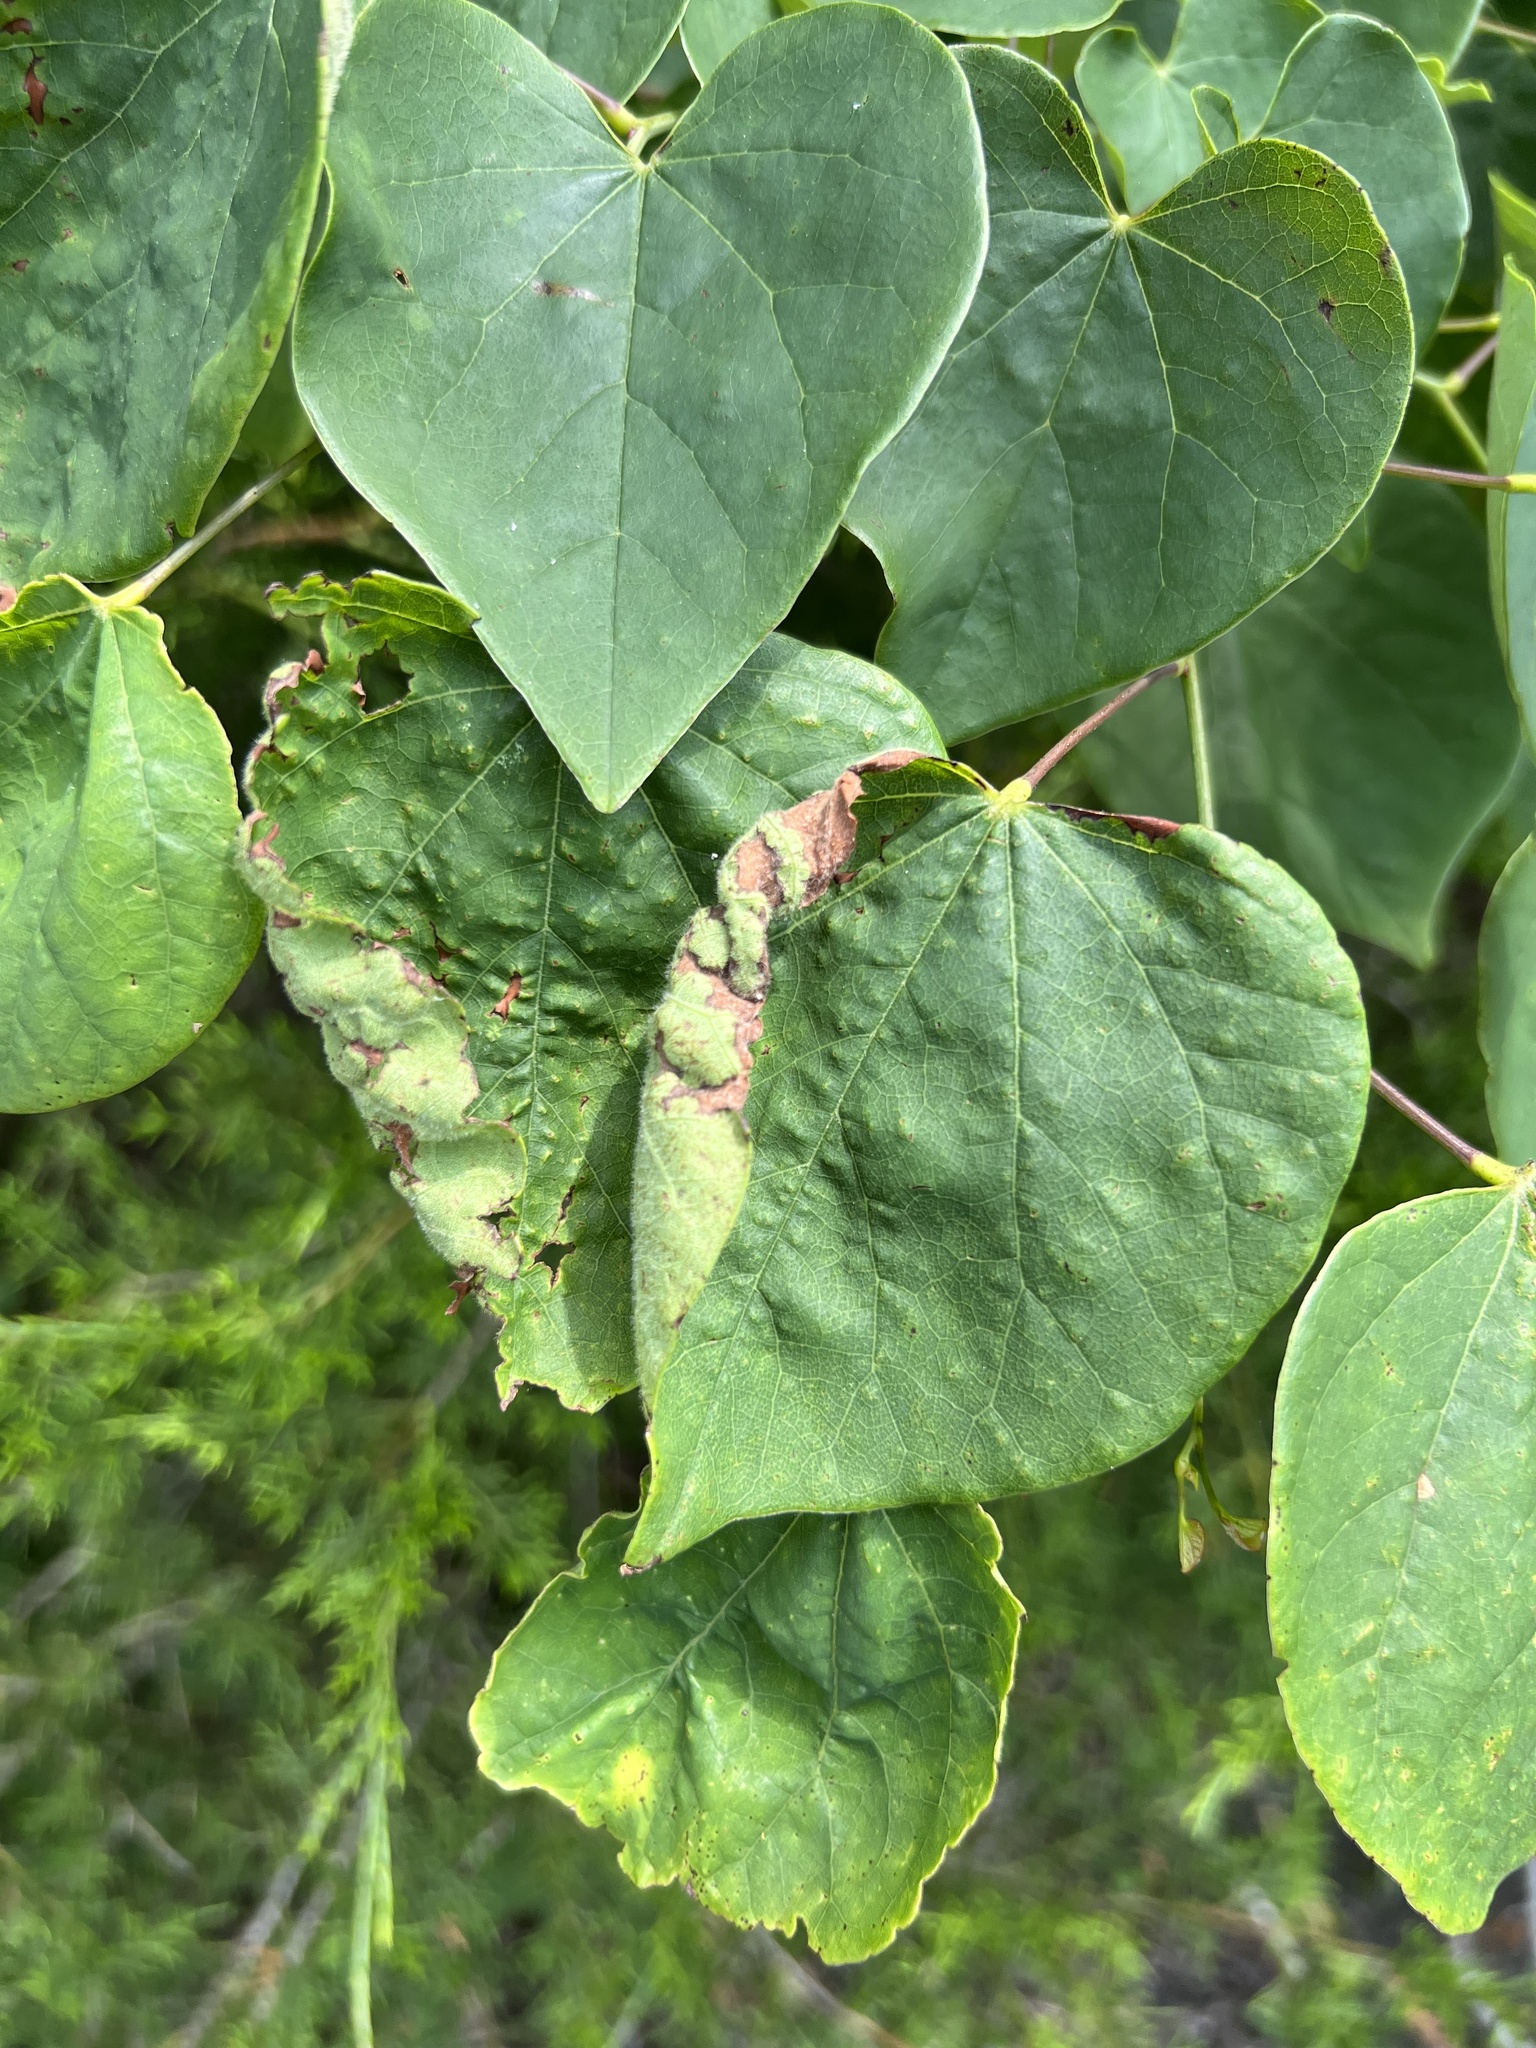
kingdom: Animalia
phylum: Arthropoda
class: Insecta
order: Lepidoptera
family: Gelechiidae
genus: Fascista
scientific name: Fascista cercerisella
